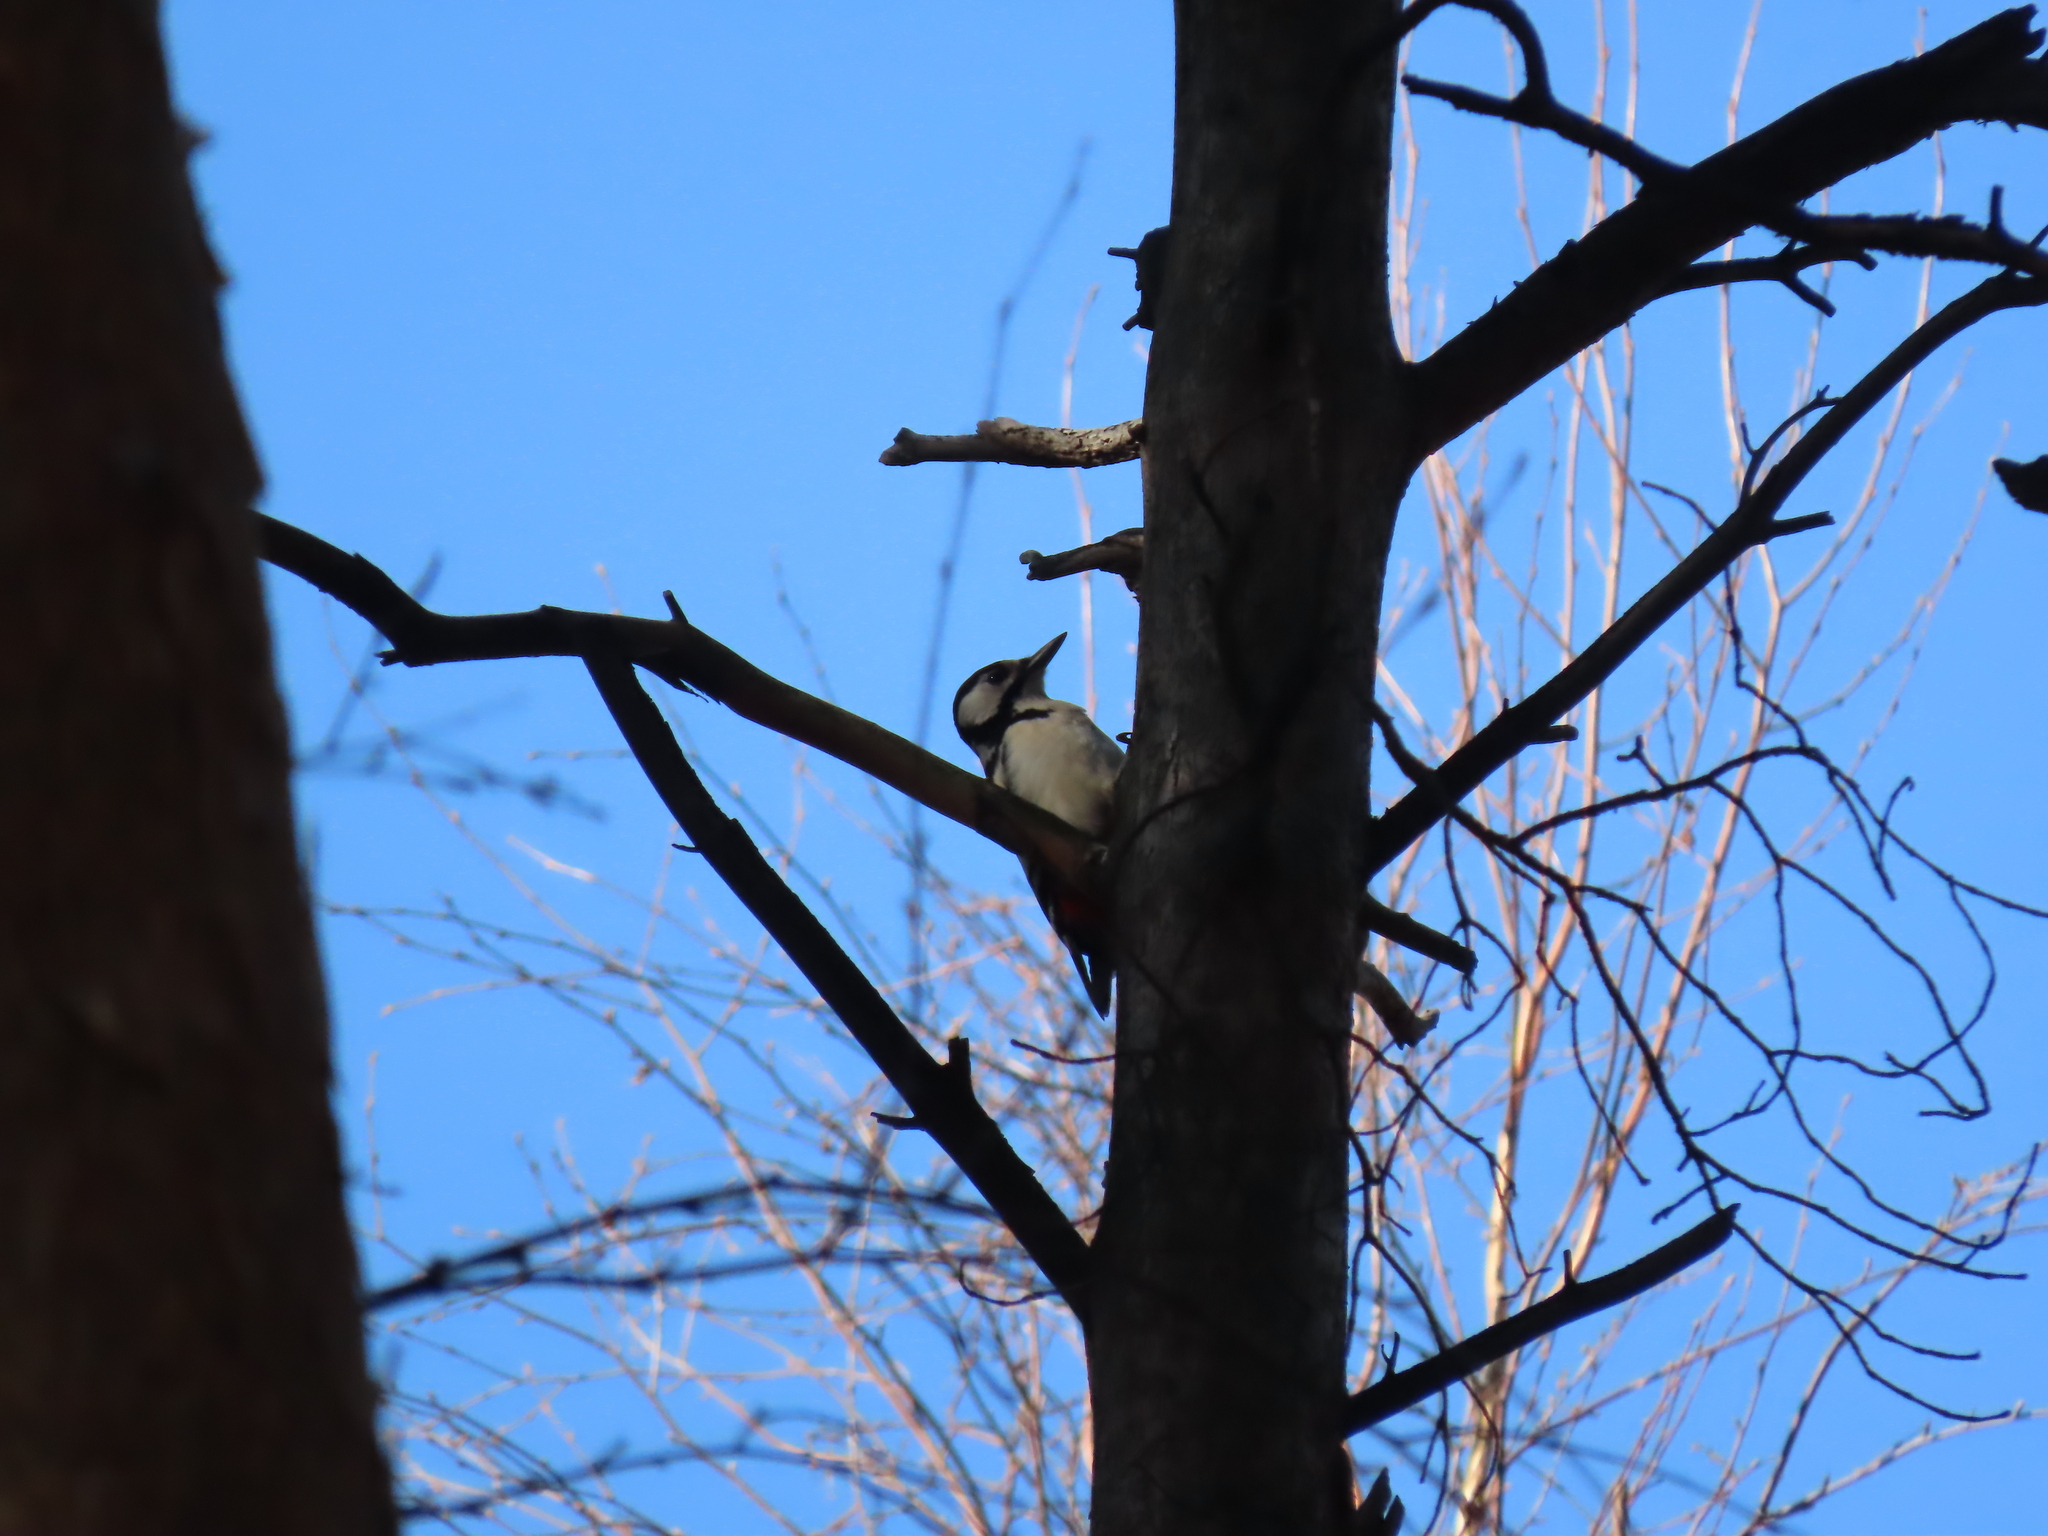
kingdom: Animalia
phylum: Chordata
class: Aves
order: Piciformes
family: Picidae
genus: Dendrocopos
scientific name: Dendrocopos major
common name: Great spotted woodpecker
